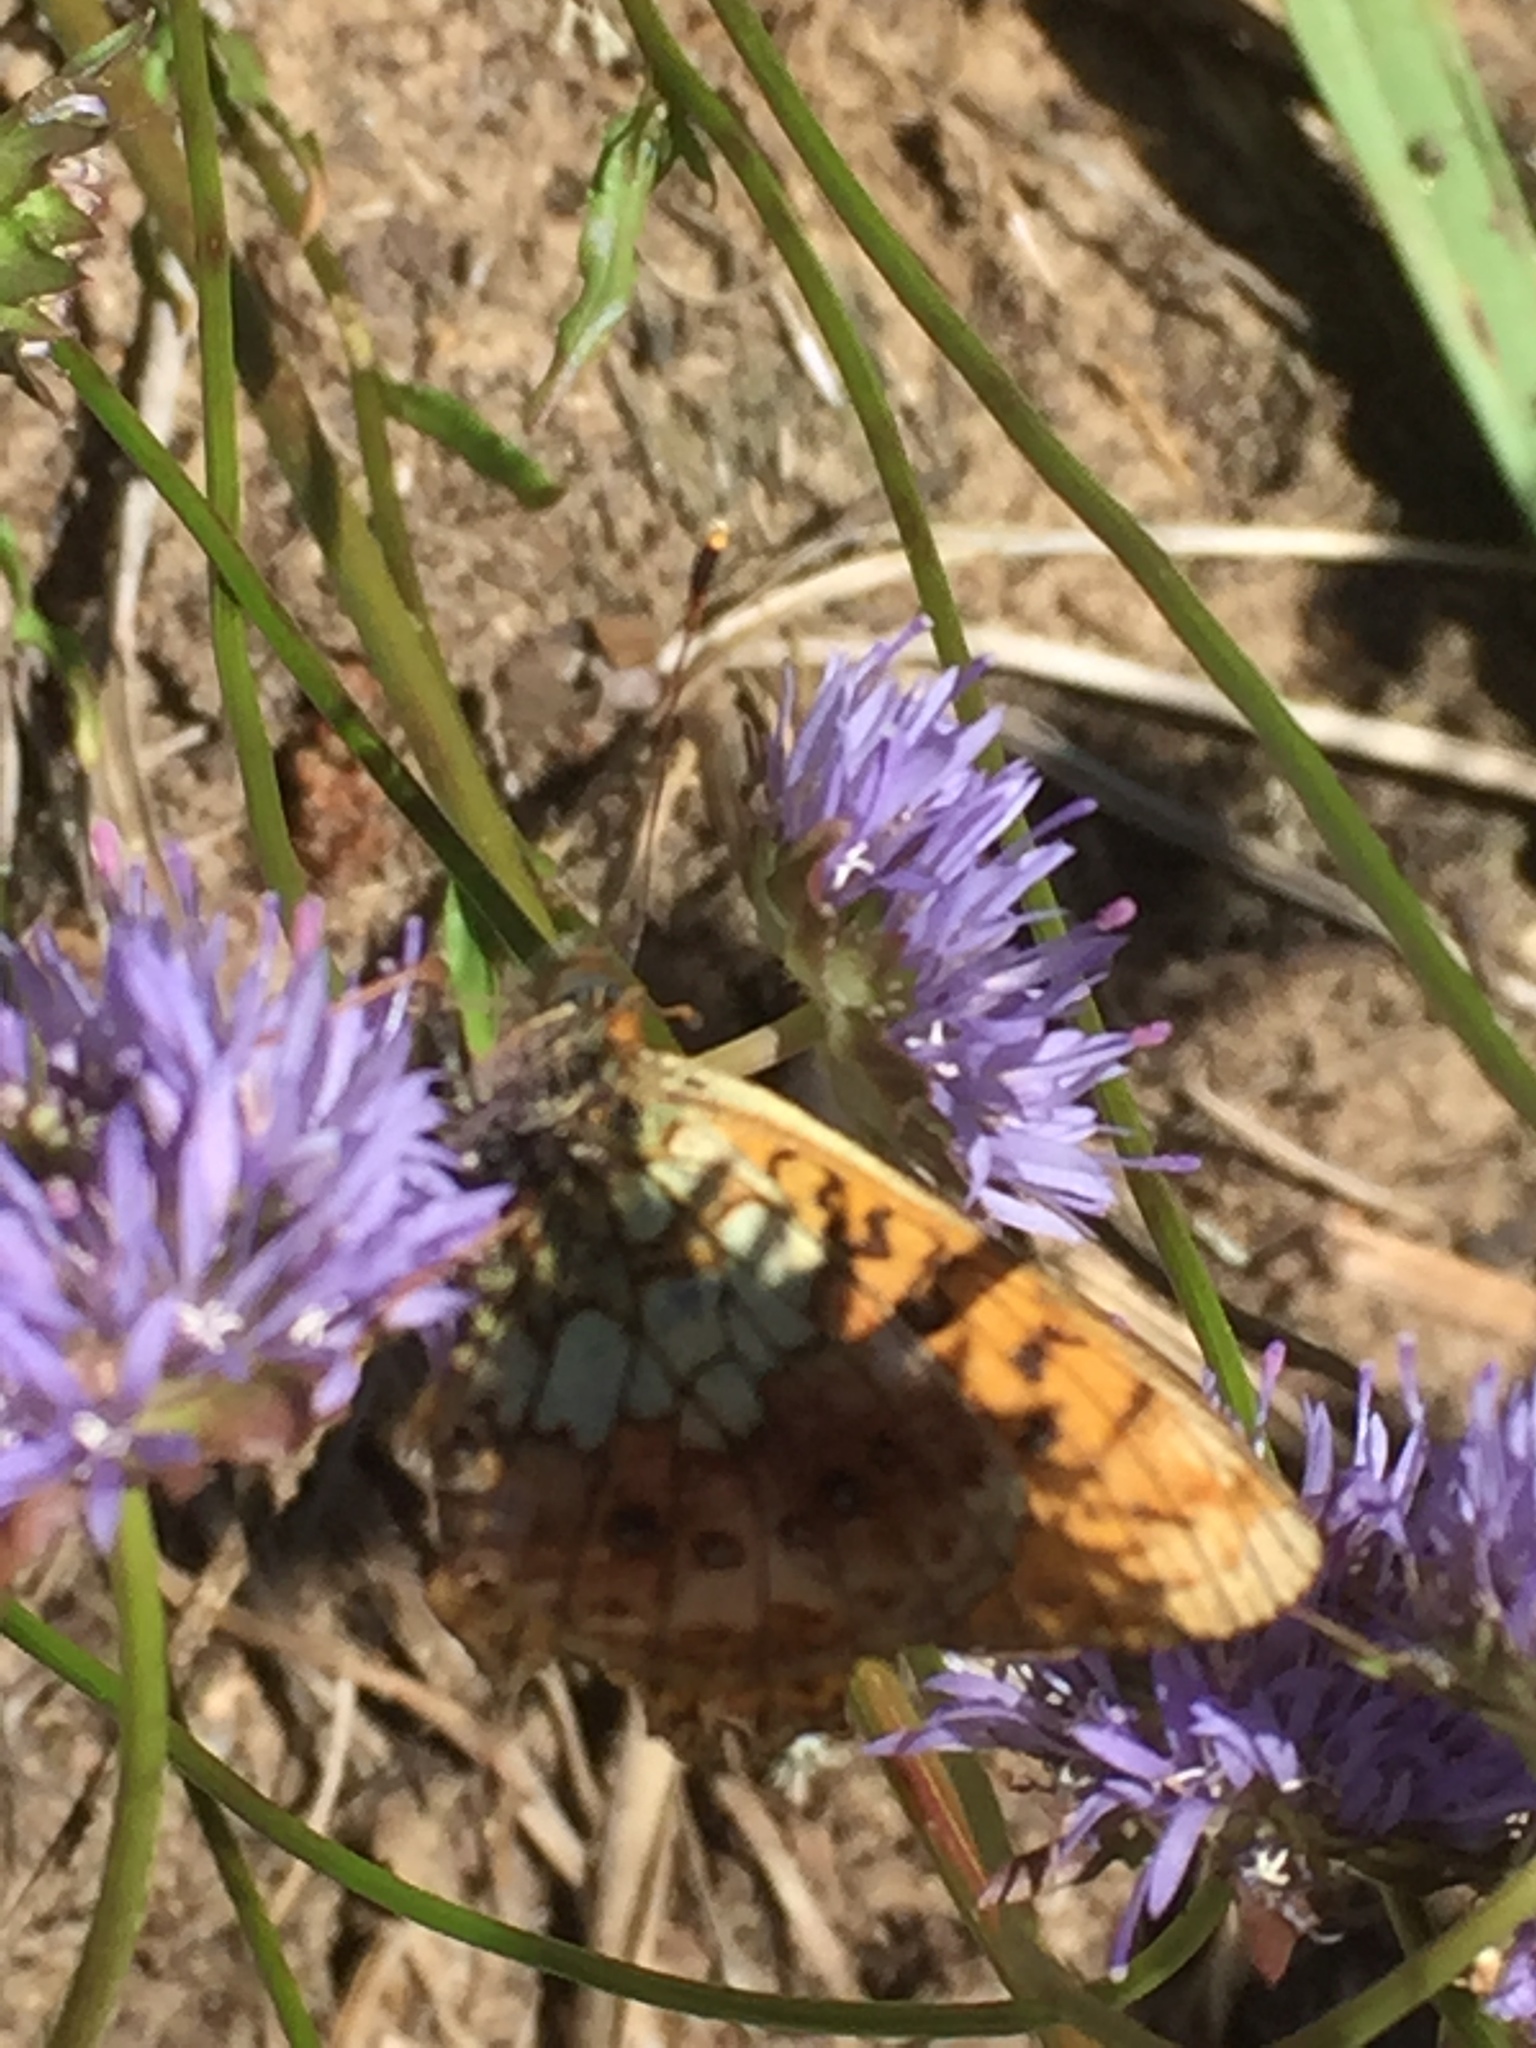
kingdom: Animalia
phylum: Arthropoda
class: Insecta
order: Lepidoptera
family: Nymphalidae
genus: Brenthis
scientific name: Brenthis ino
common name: Lesser marbled fritillary
